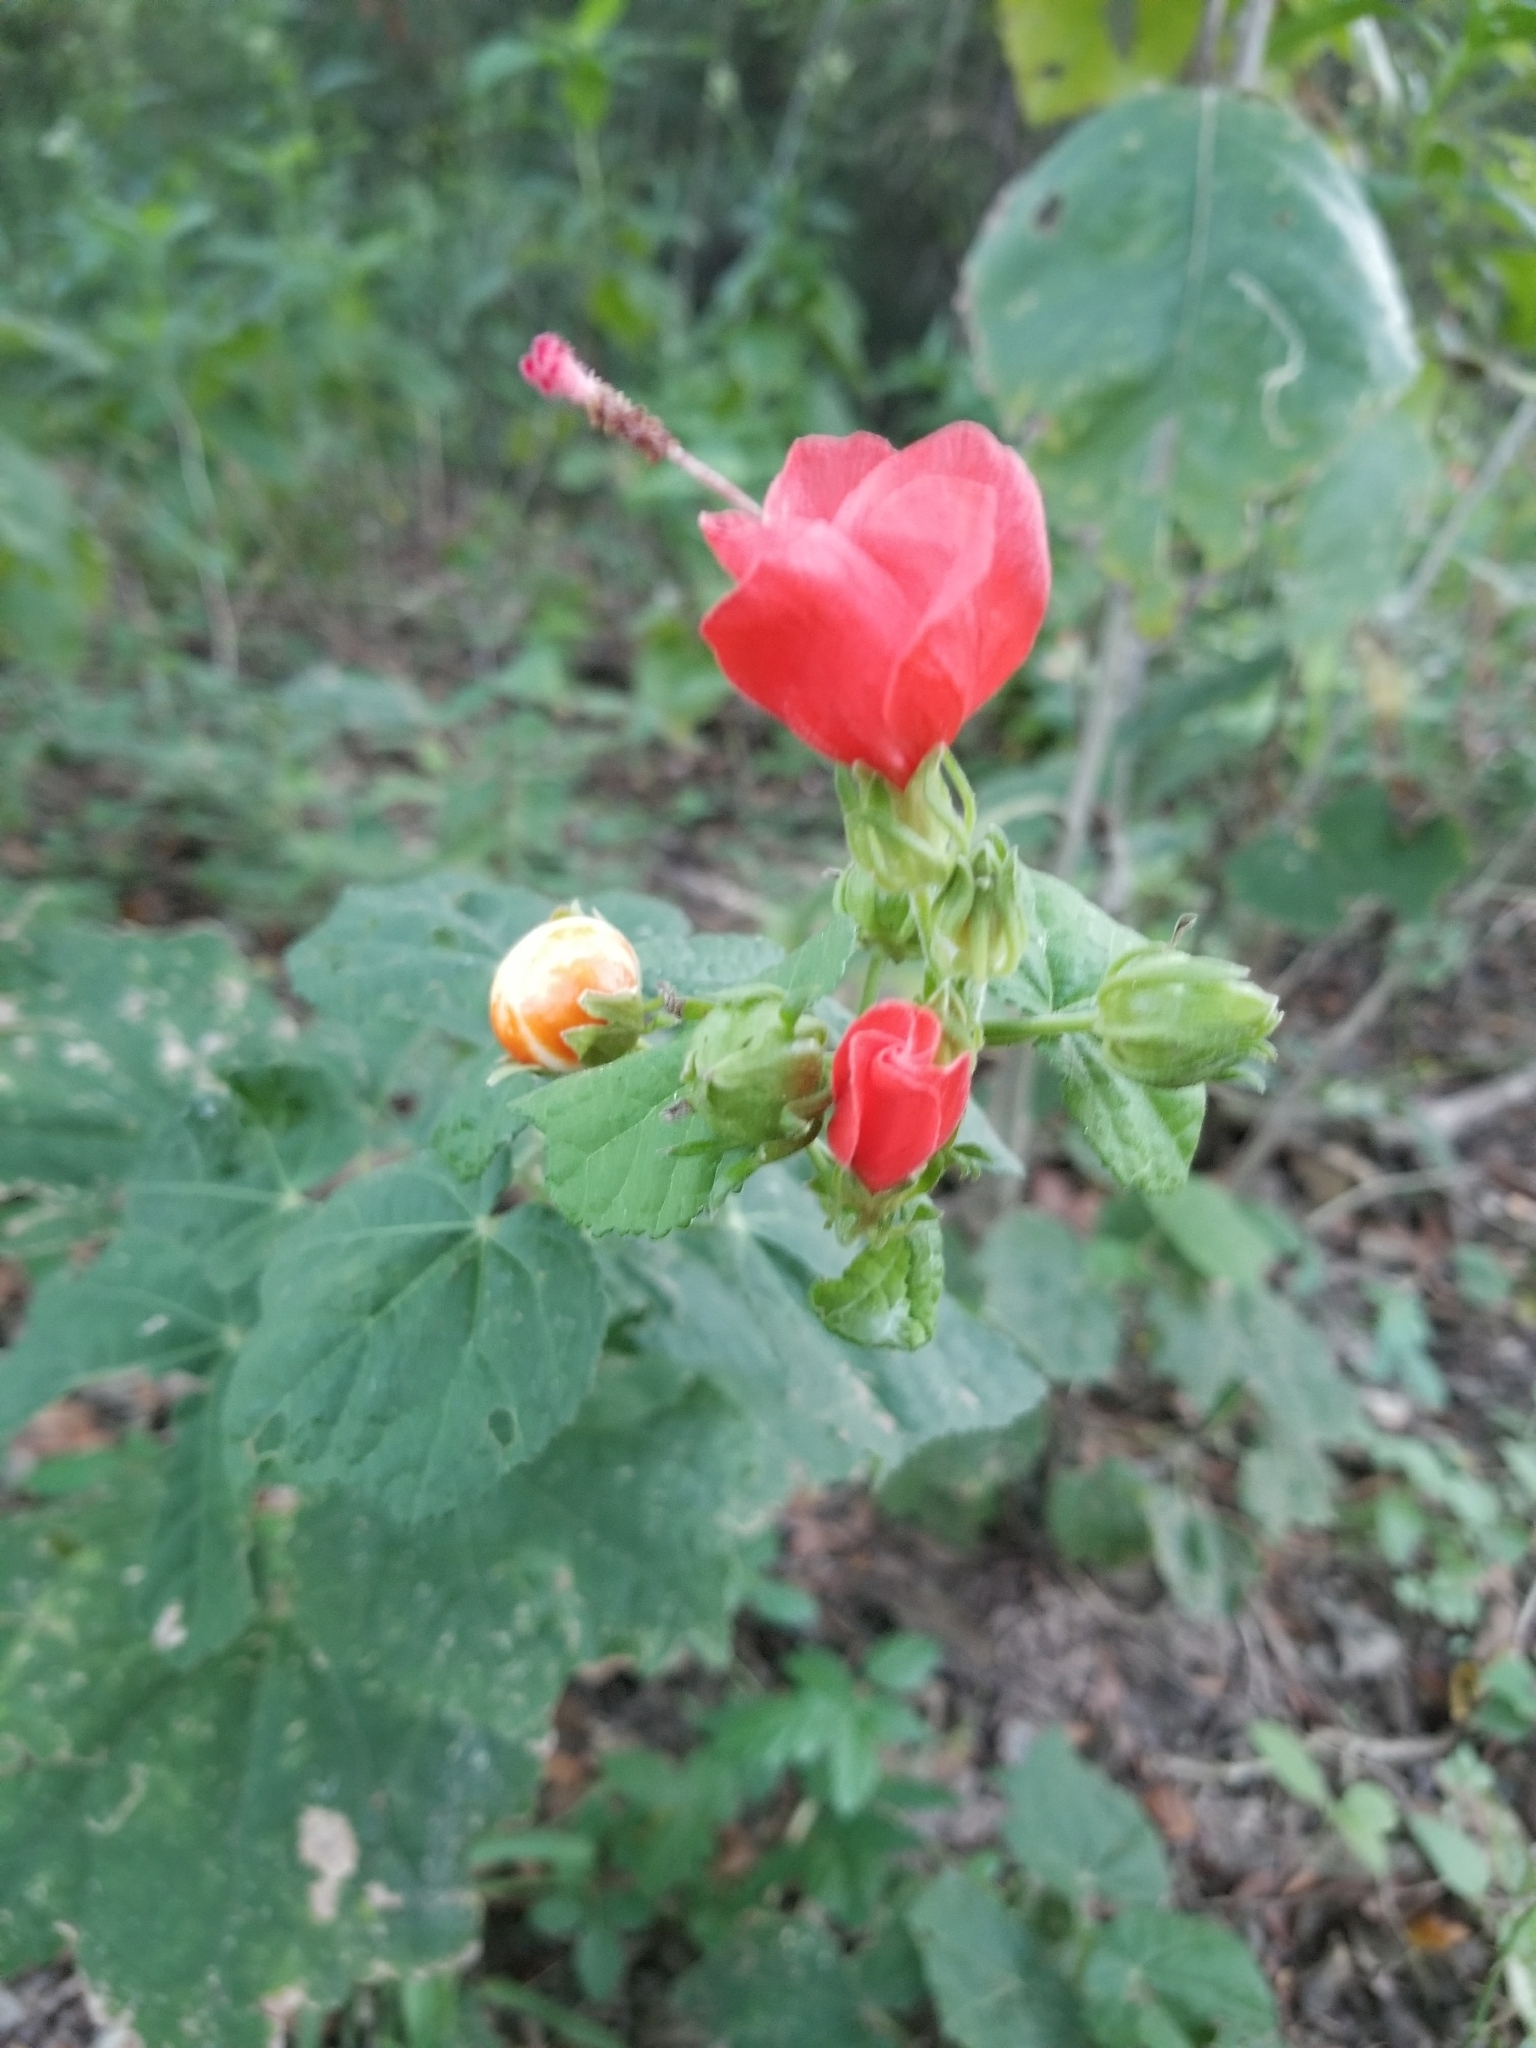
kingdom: Plantae
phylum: Tracheophyta
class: Magnoliopsida
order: Malvales
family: Malvaceae
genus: Malvaviscus
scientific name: Malvaviscus arboreus
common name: Wax mallow
